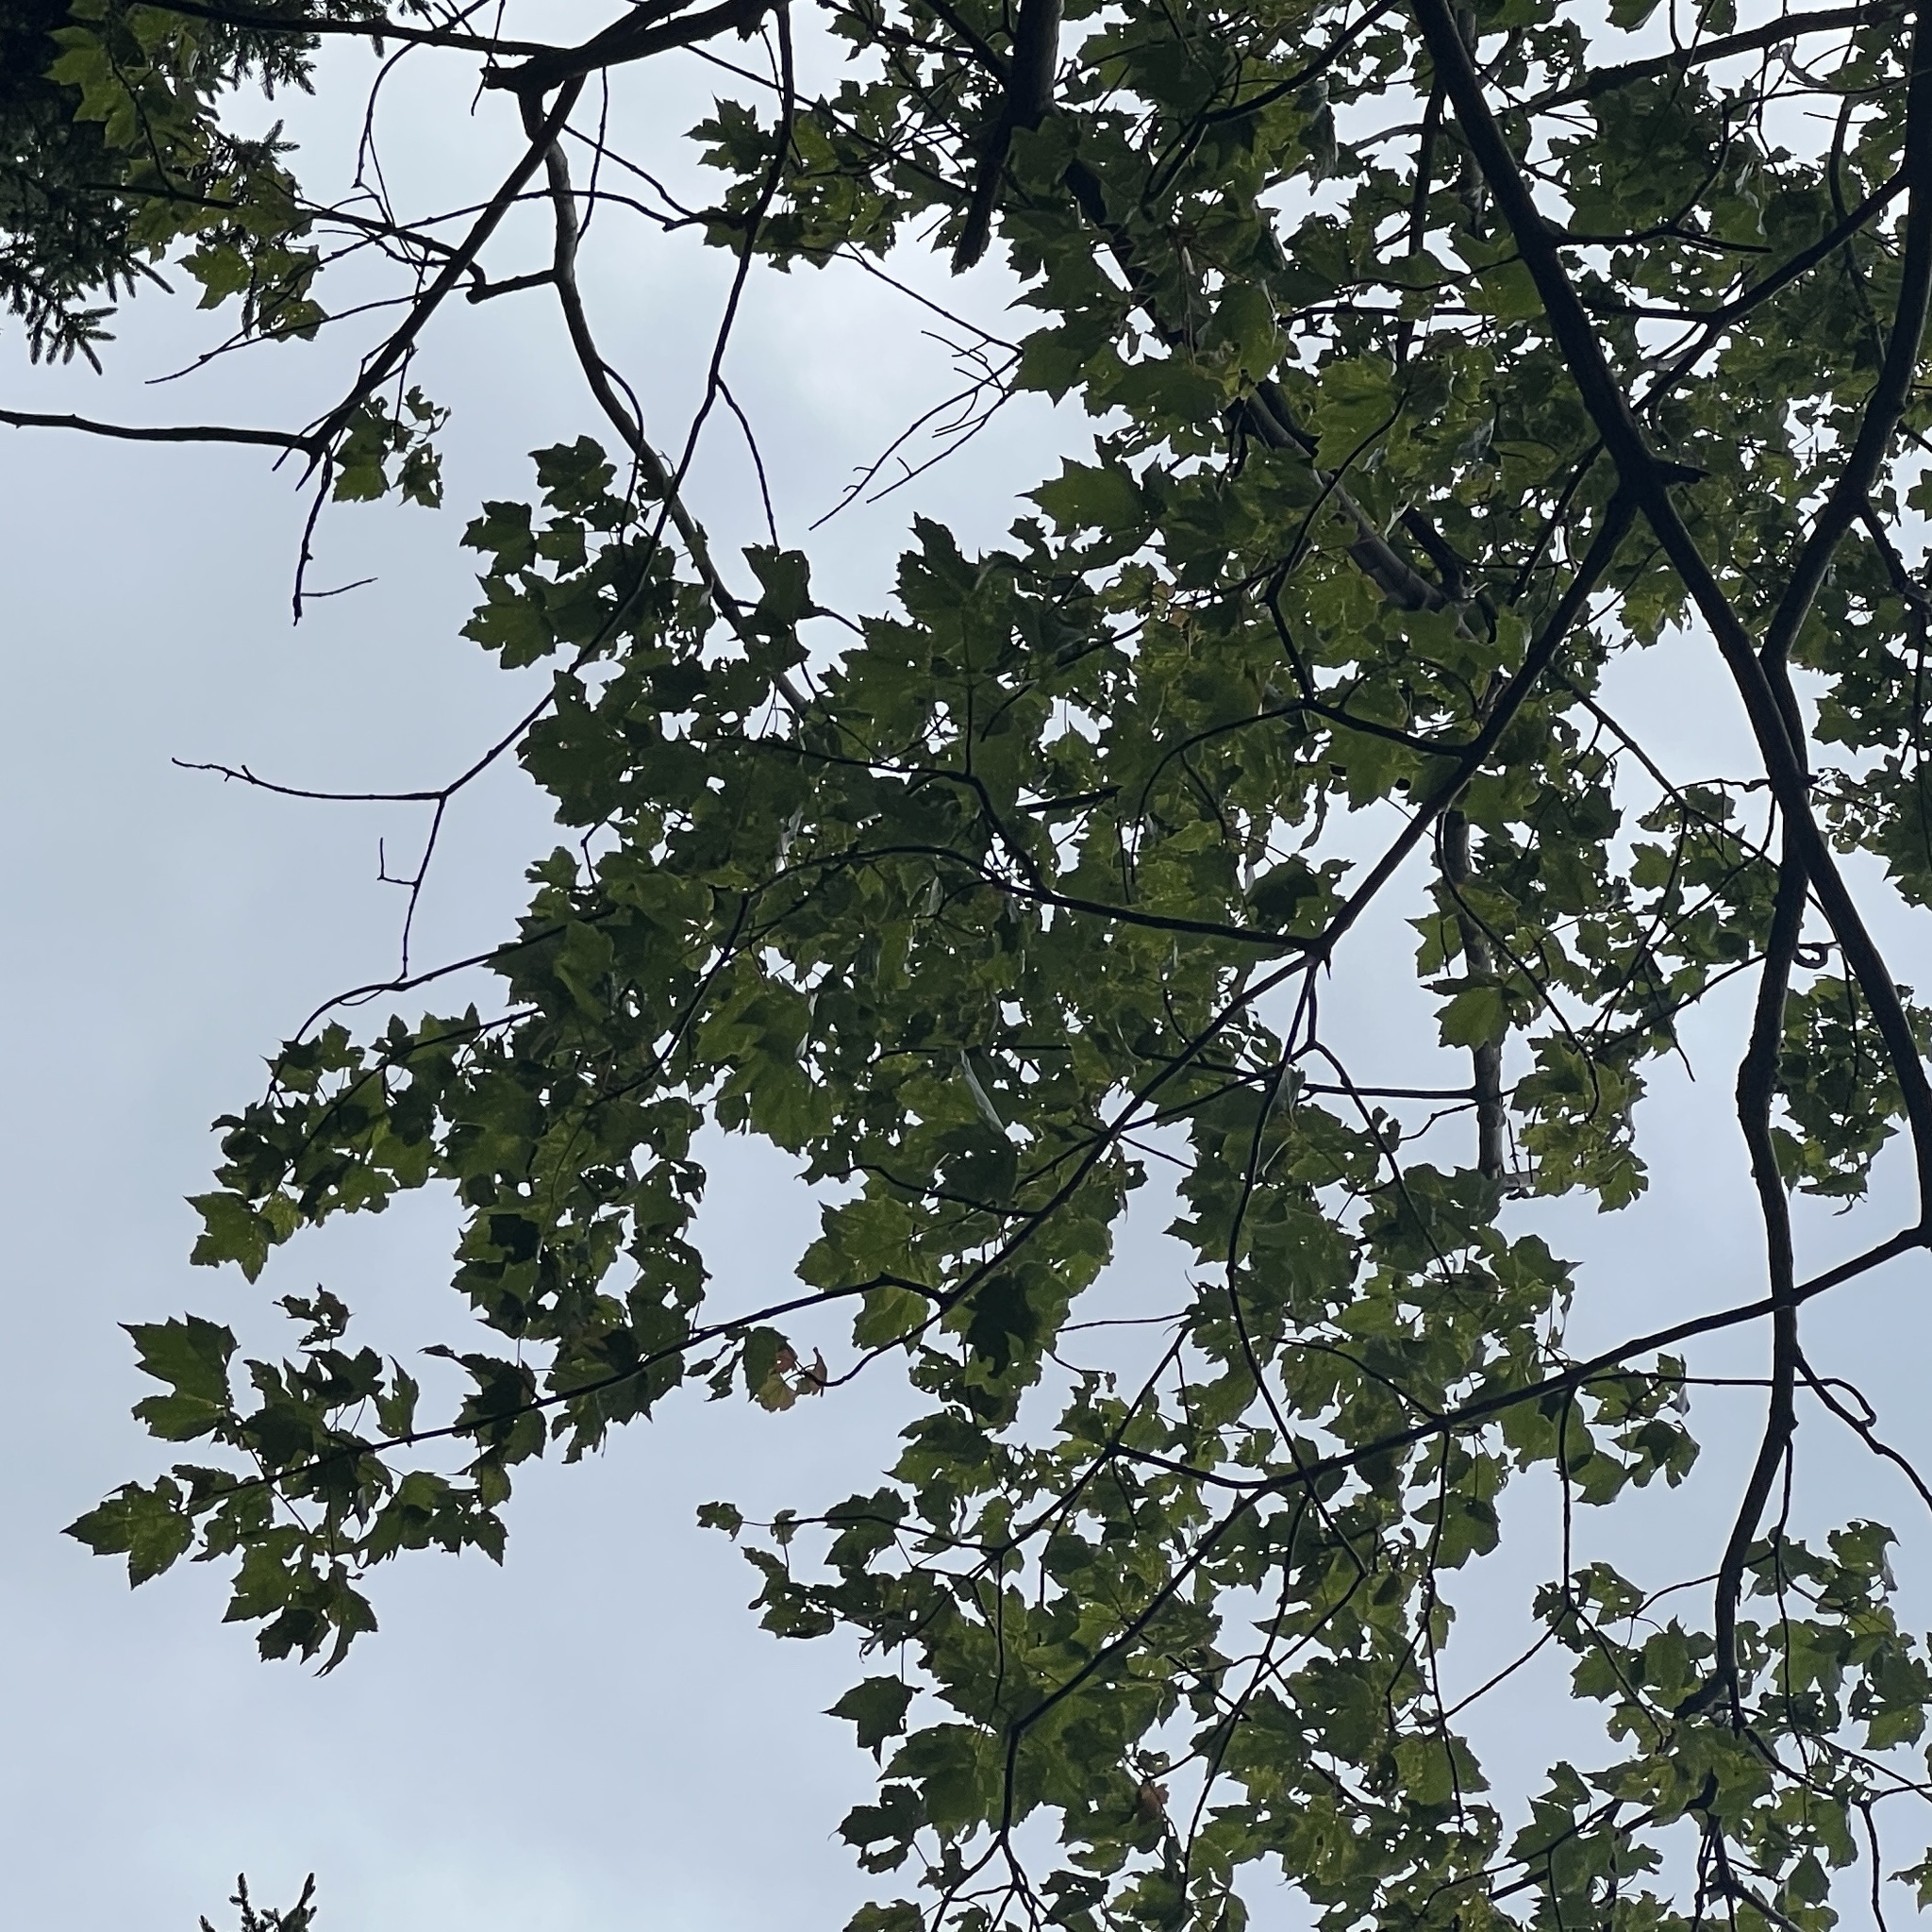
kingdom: Plantae
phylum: Tracheophyta
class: Magnoliopsida
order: Sapindales
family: Sapindaceae
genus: Acer
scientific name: Acer rubrum
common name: Red maple
